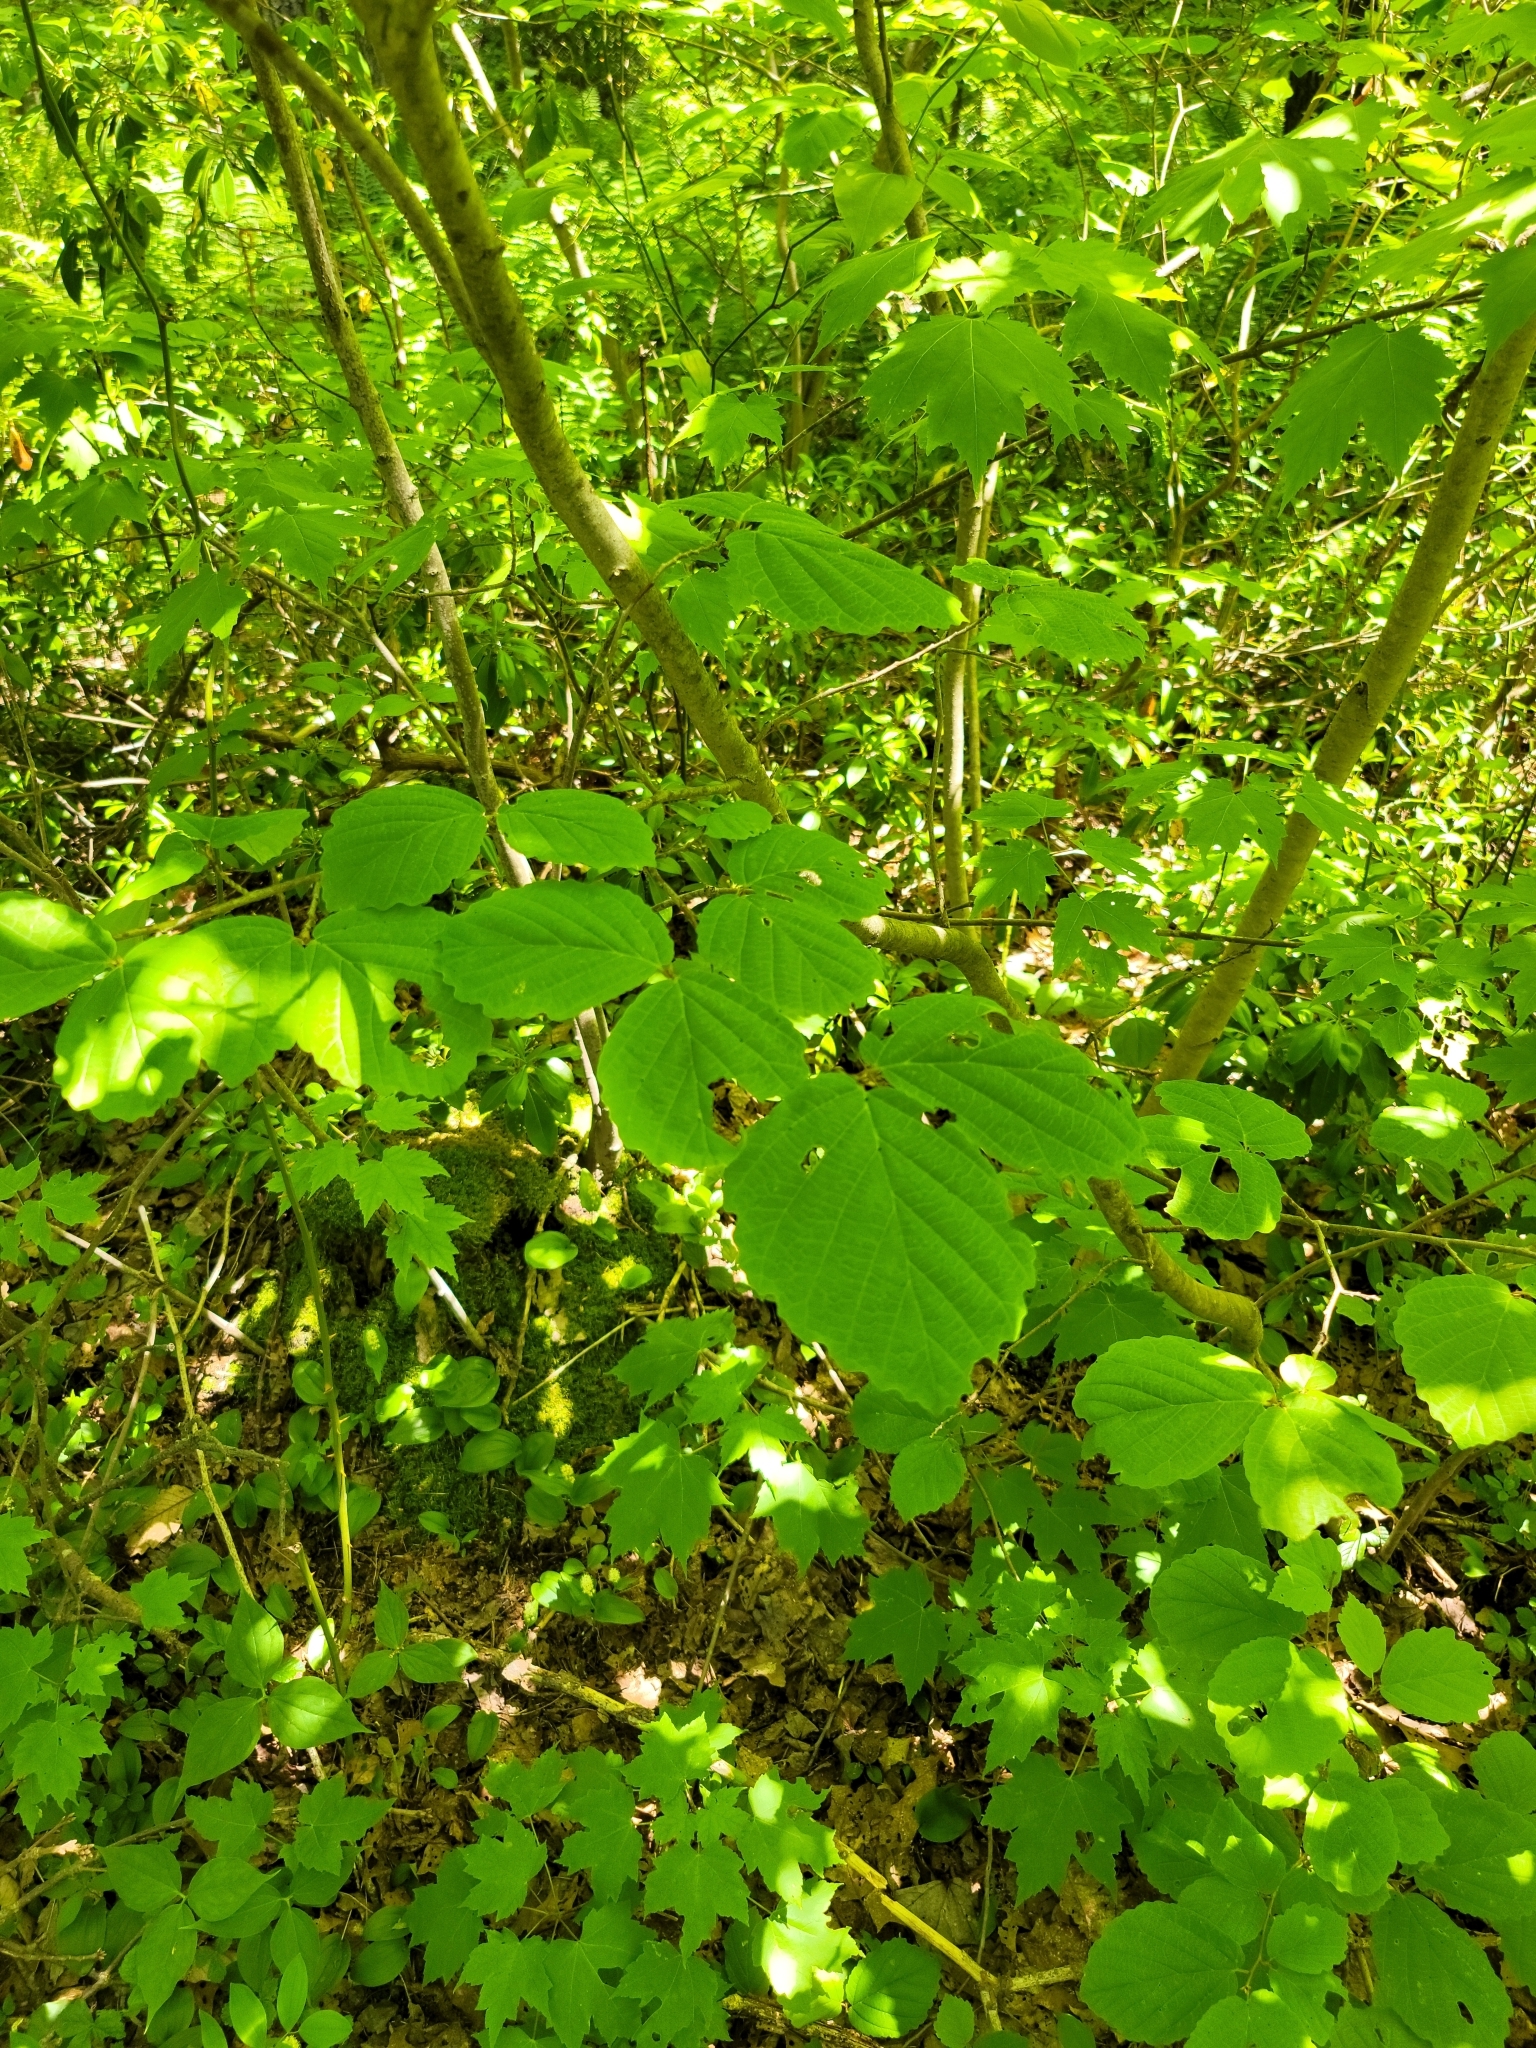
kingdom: Plantae
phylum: Tracheophyta
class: Magnoliopsida
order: Saxifragales
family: Hamamelidaceae
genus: Hamamelis
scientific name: Hamamelis virginiana
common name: Witch-hazel
